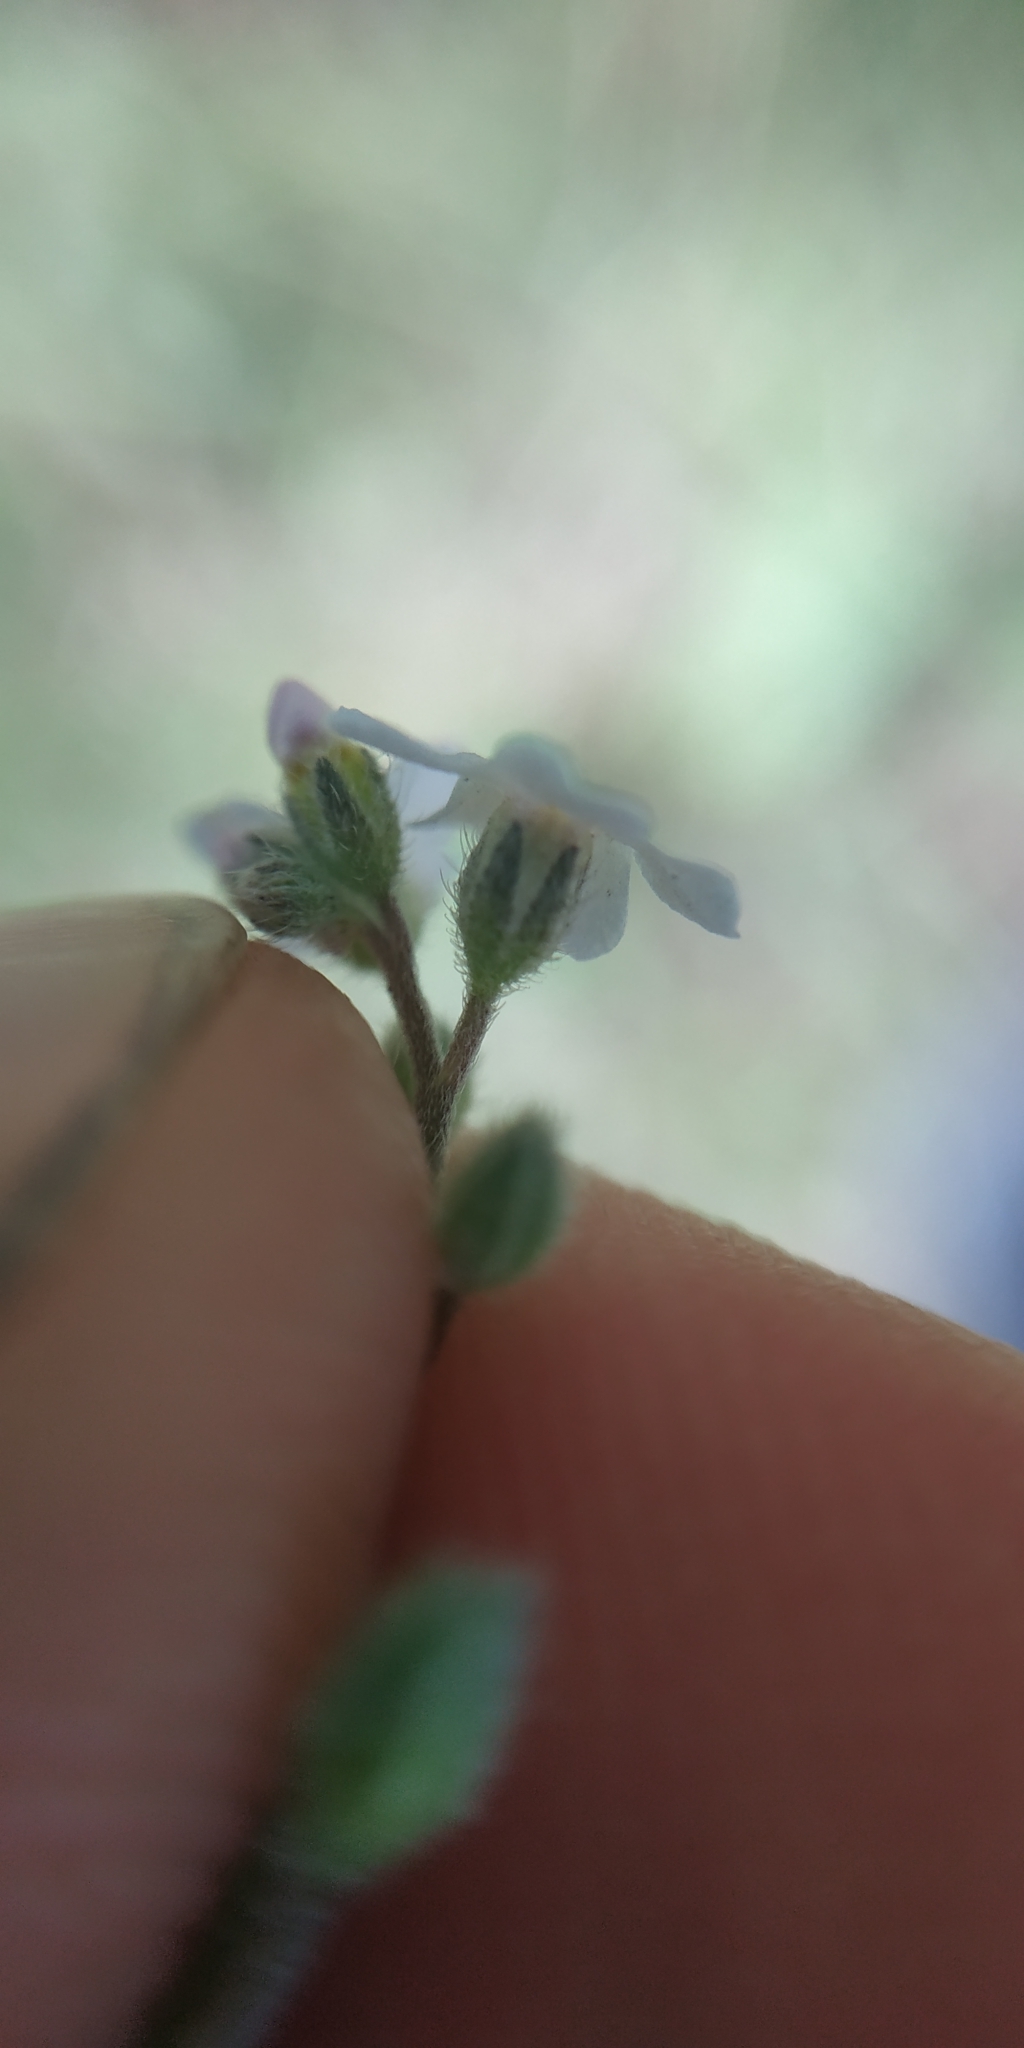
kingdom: Plantae
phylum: Tracheophyta
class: Magnoliopsida
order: Boraginales
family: Boraginaceae
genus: Myosotis
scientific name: Myosotis imitata
